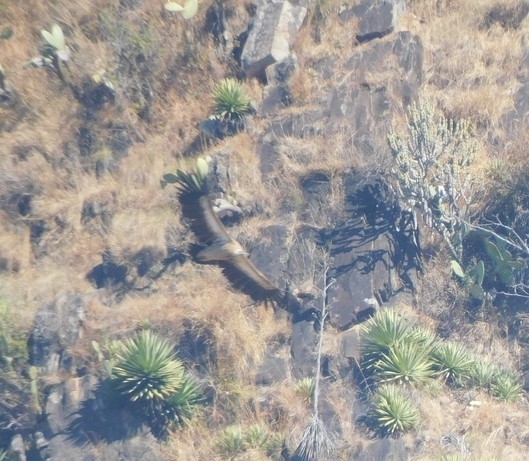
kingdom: Animalia
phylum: Chordata
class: Aves
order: Accipitriformes
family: Accipitridae
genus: Gyps
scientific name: Gyps himalayensis
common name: Himalayan griffon
